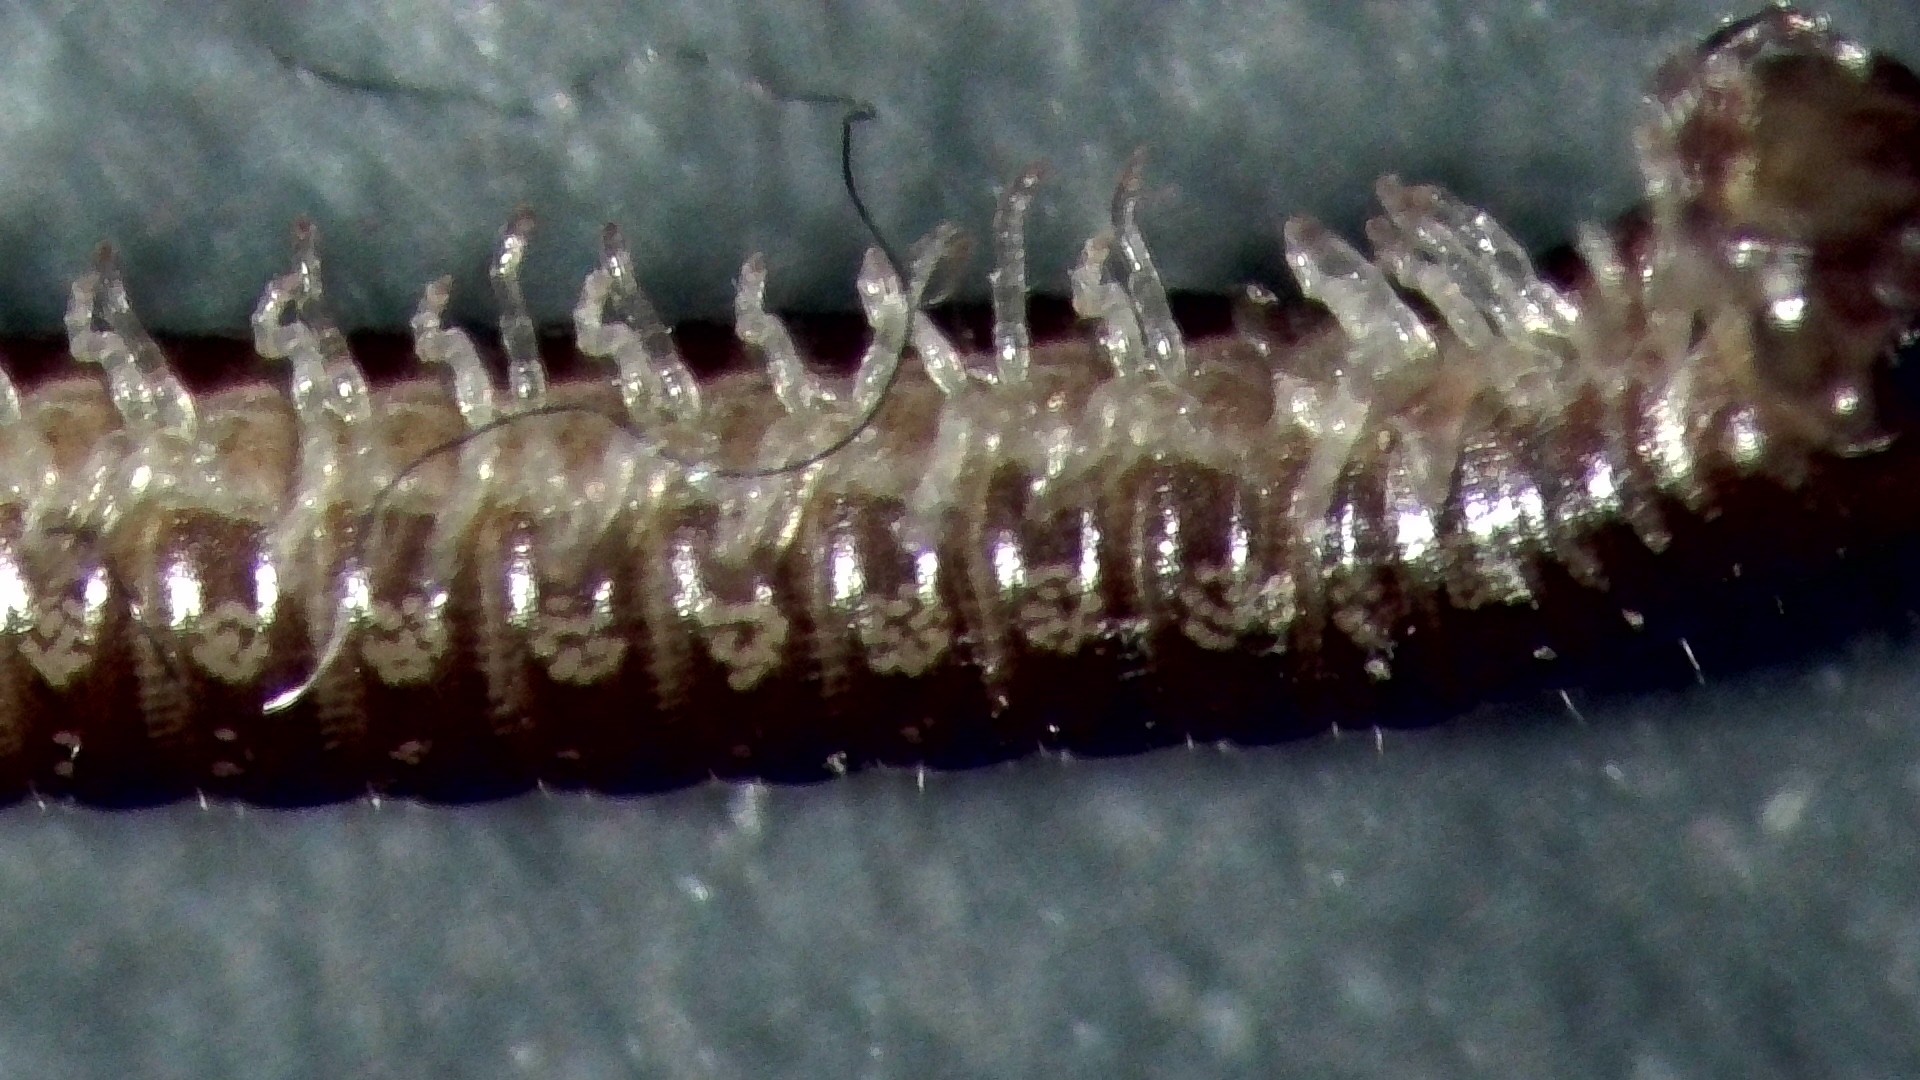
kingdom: Animalia
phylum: Arthropoda
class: Diplopoda
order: Julida
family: Julidae
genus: Brachyiulus
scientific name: Brachyiulus
